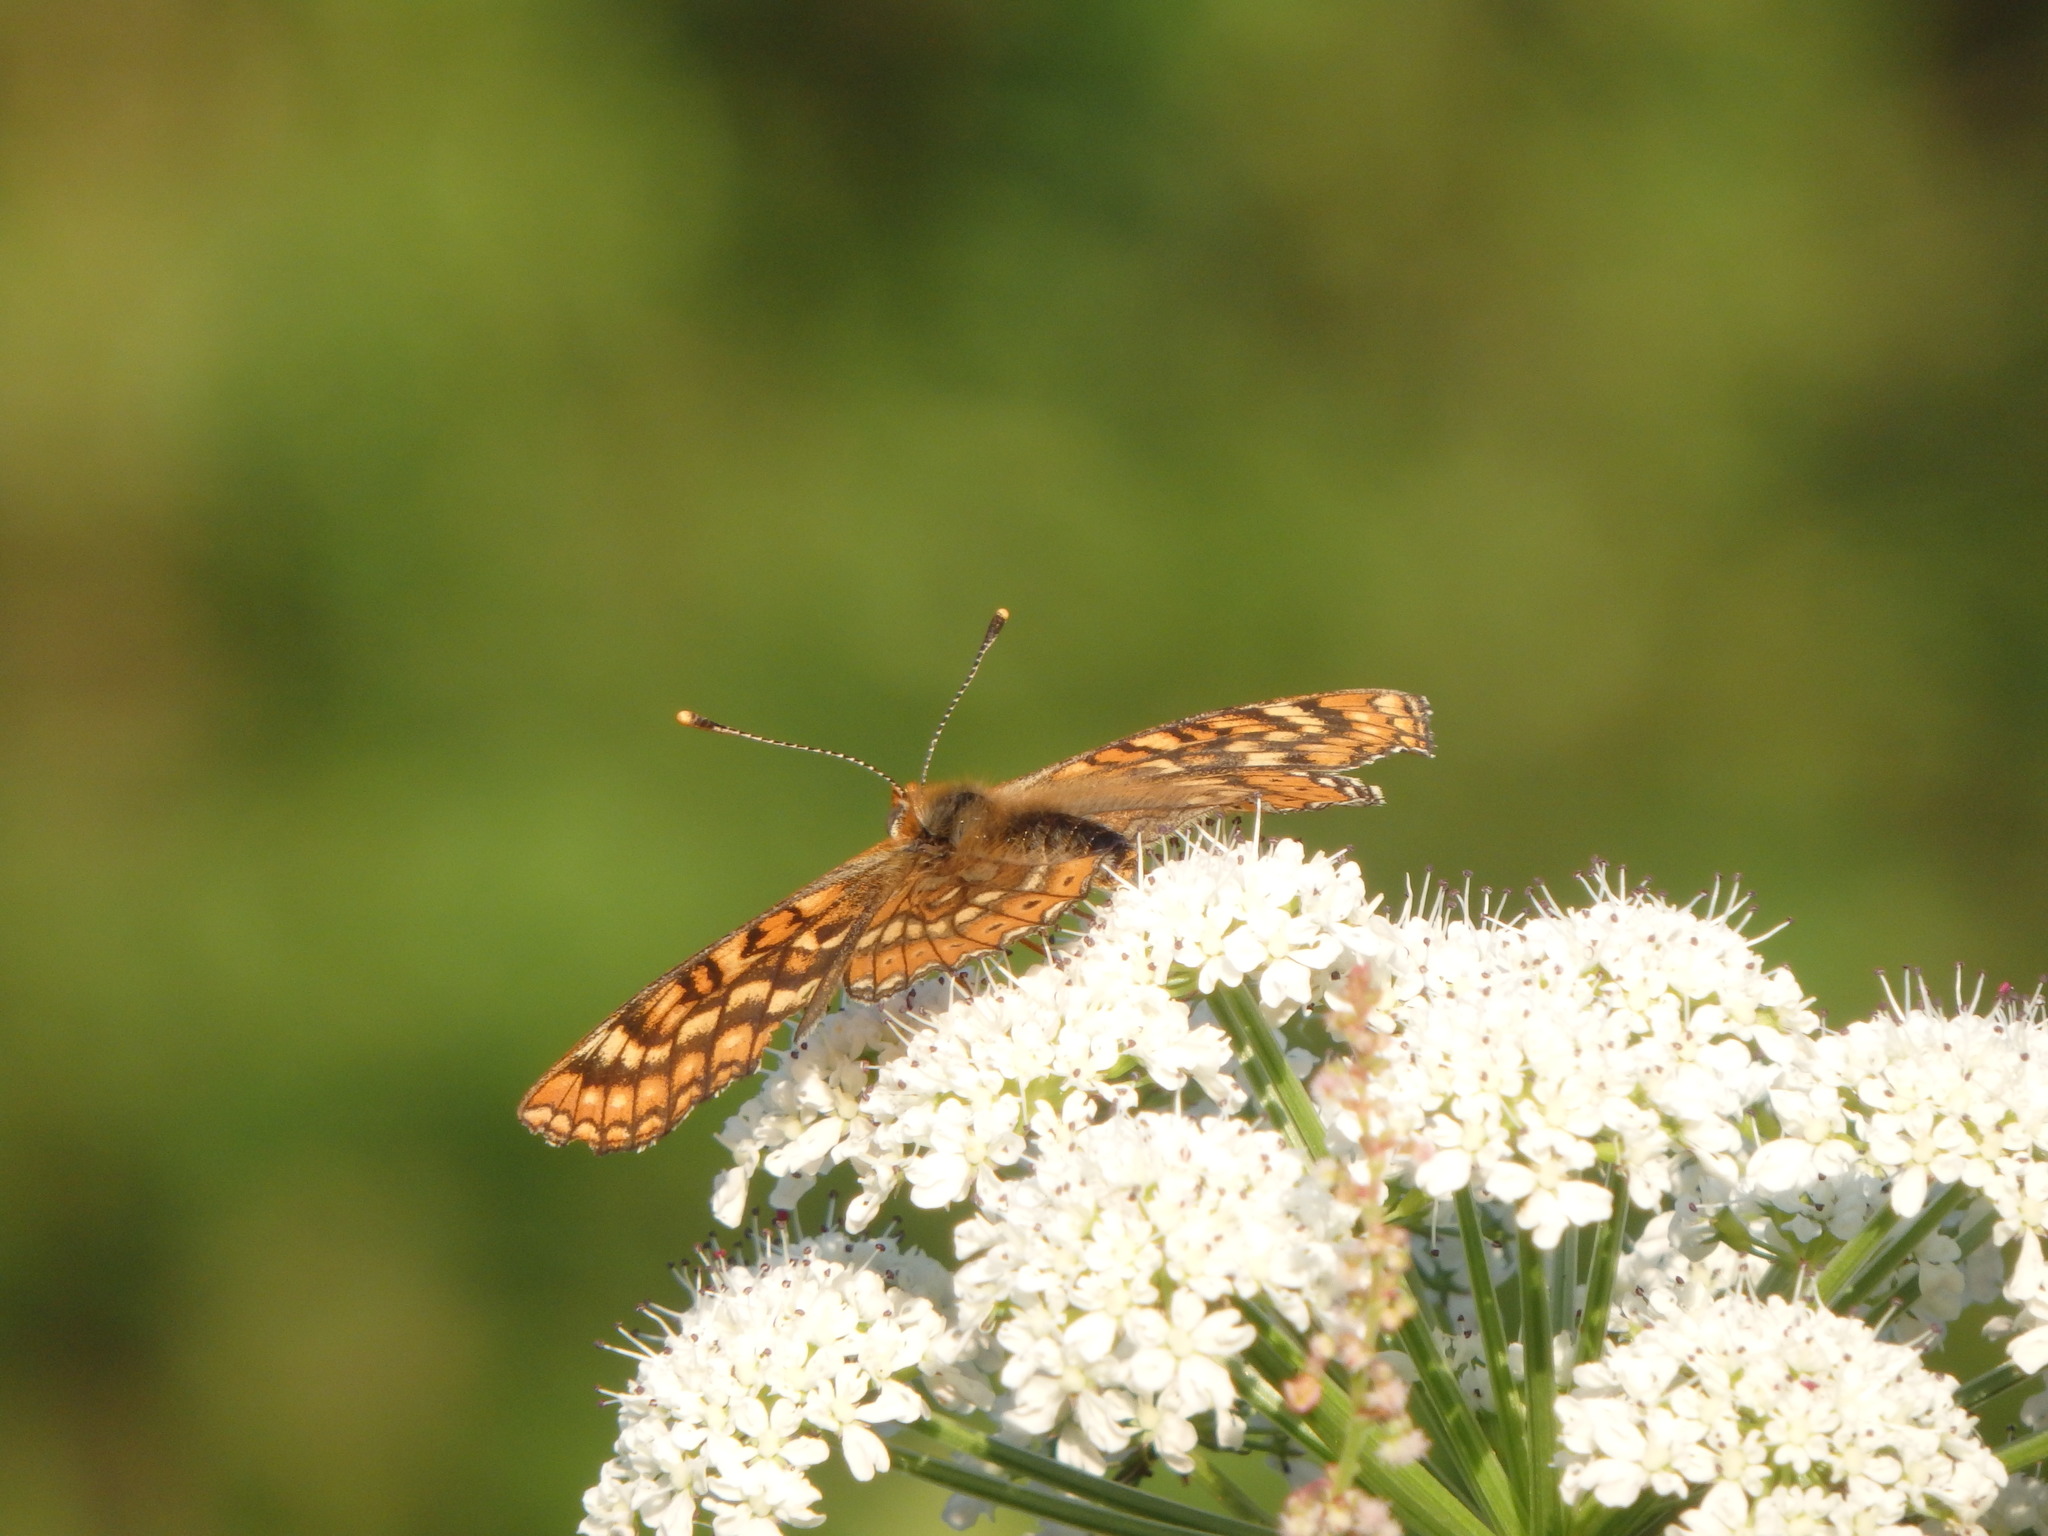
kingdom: Animalia
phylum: Arthropoda
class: Insecta
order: Lepidoptera
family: Nymphalidae
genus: Euphydryas
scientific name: Euphydryas aurinia
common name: Marsh fritillary
